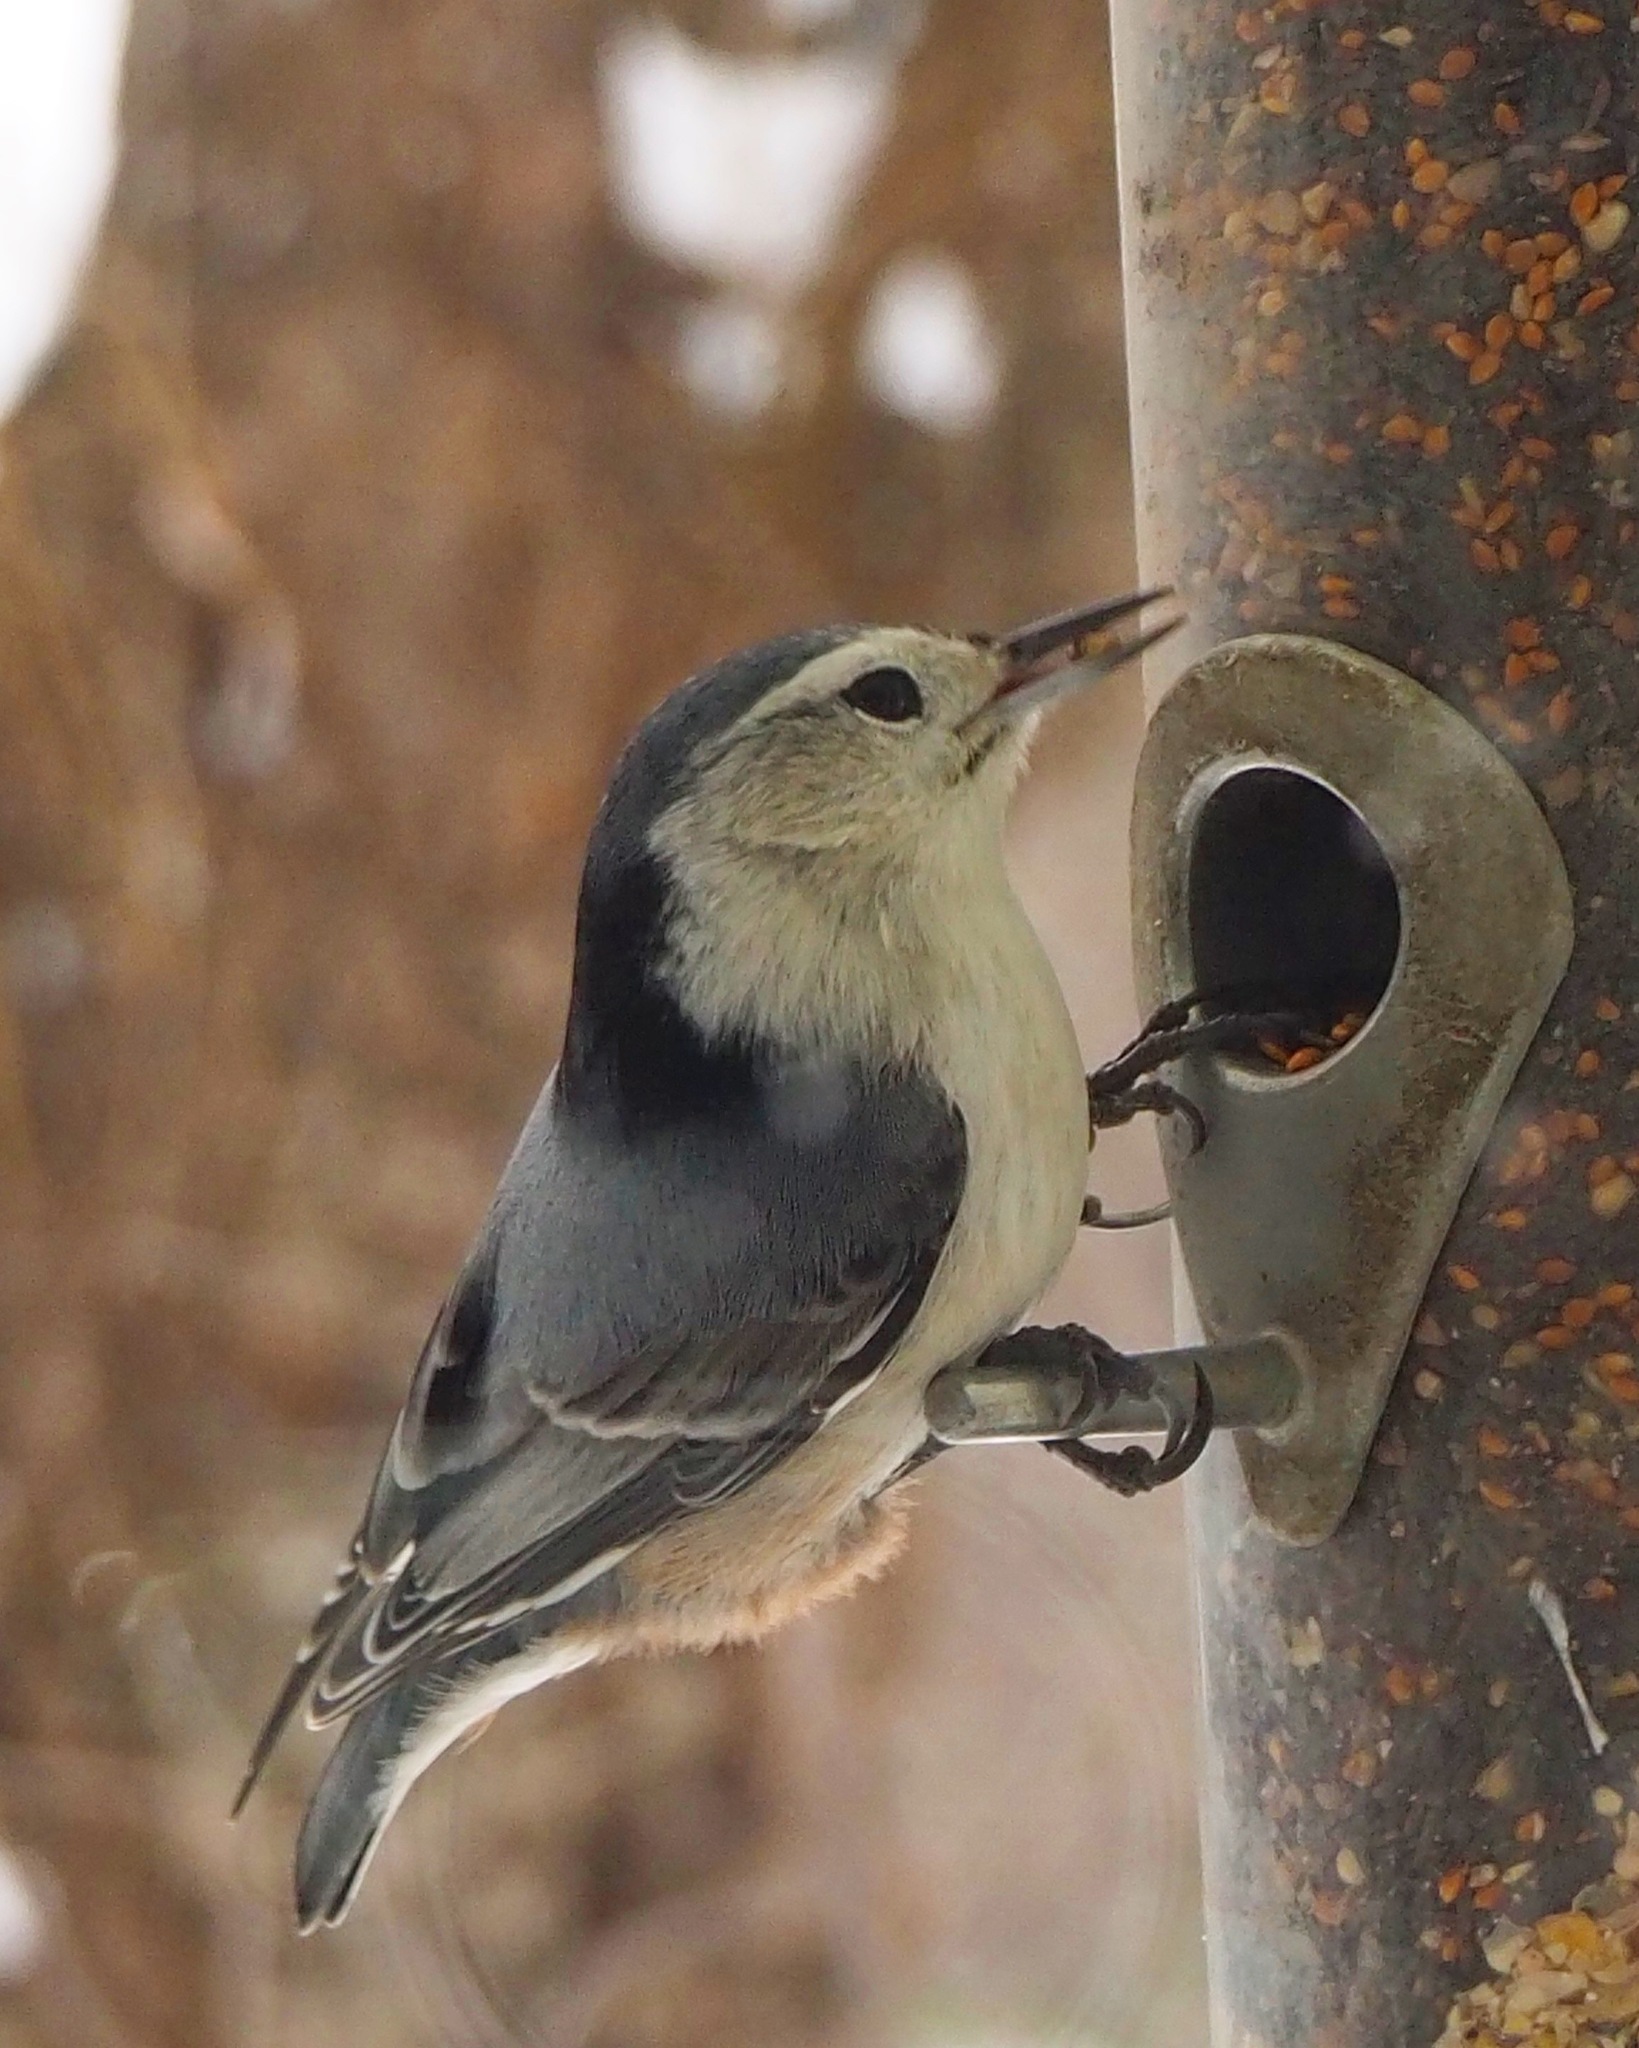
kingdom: Animalia
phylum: Chordata
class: Aves
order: Passeriformes
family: Sittidae
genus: Sitta
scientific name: Sitta carolinensis
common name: White-breasted nuthatch
